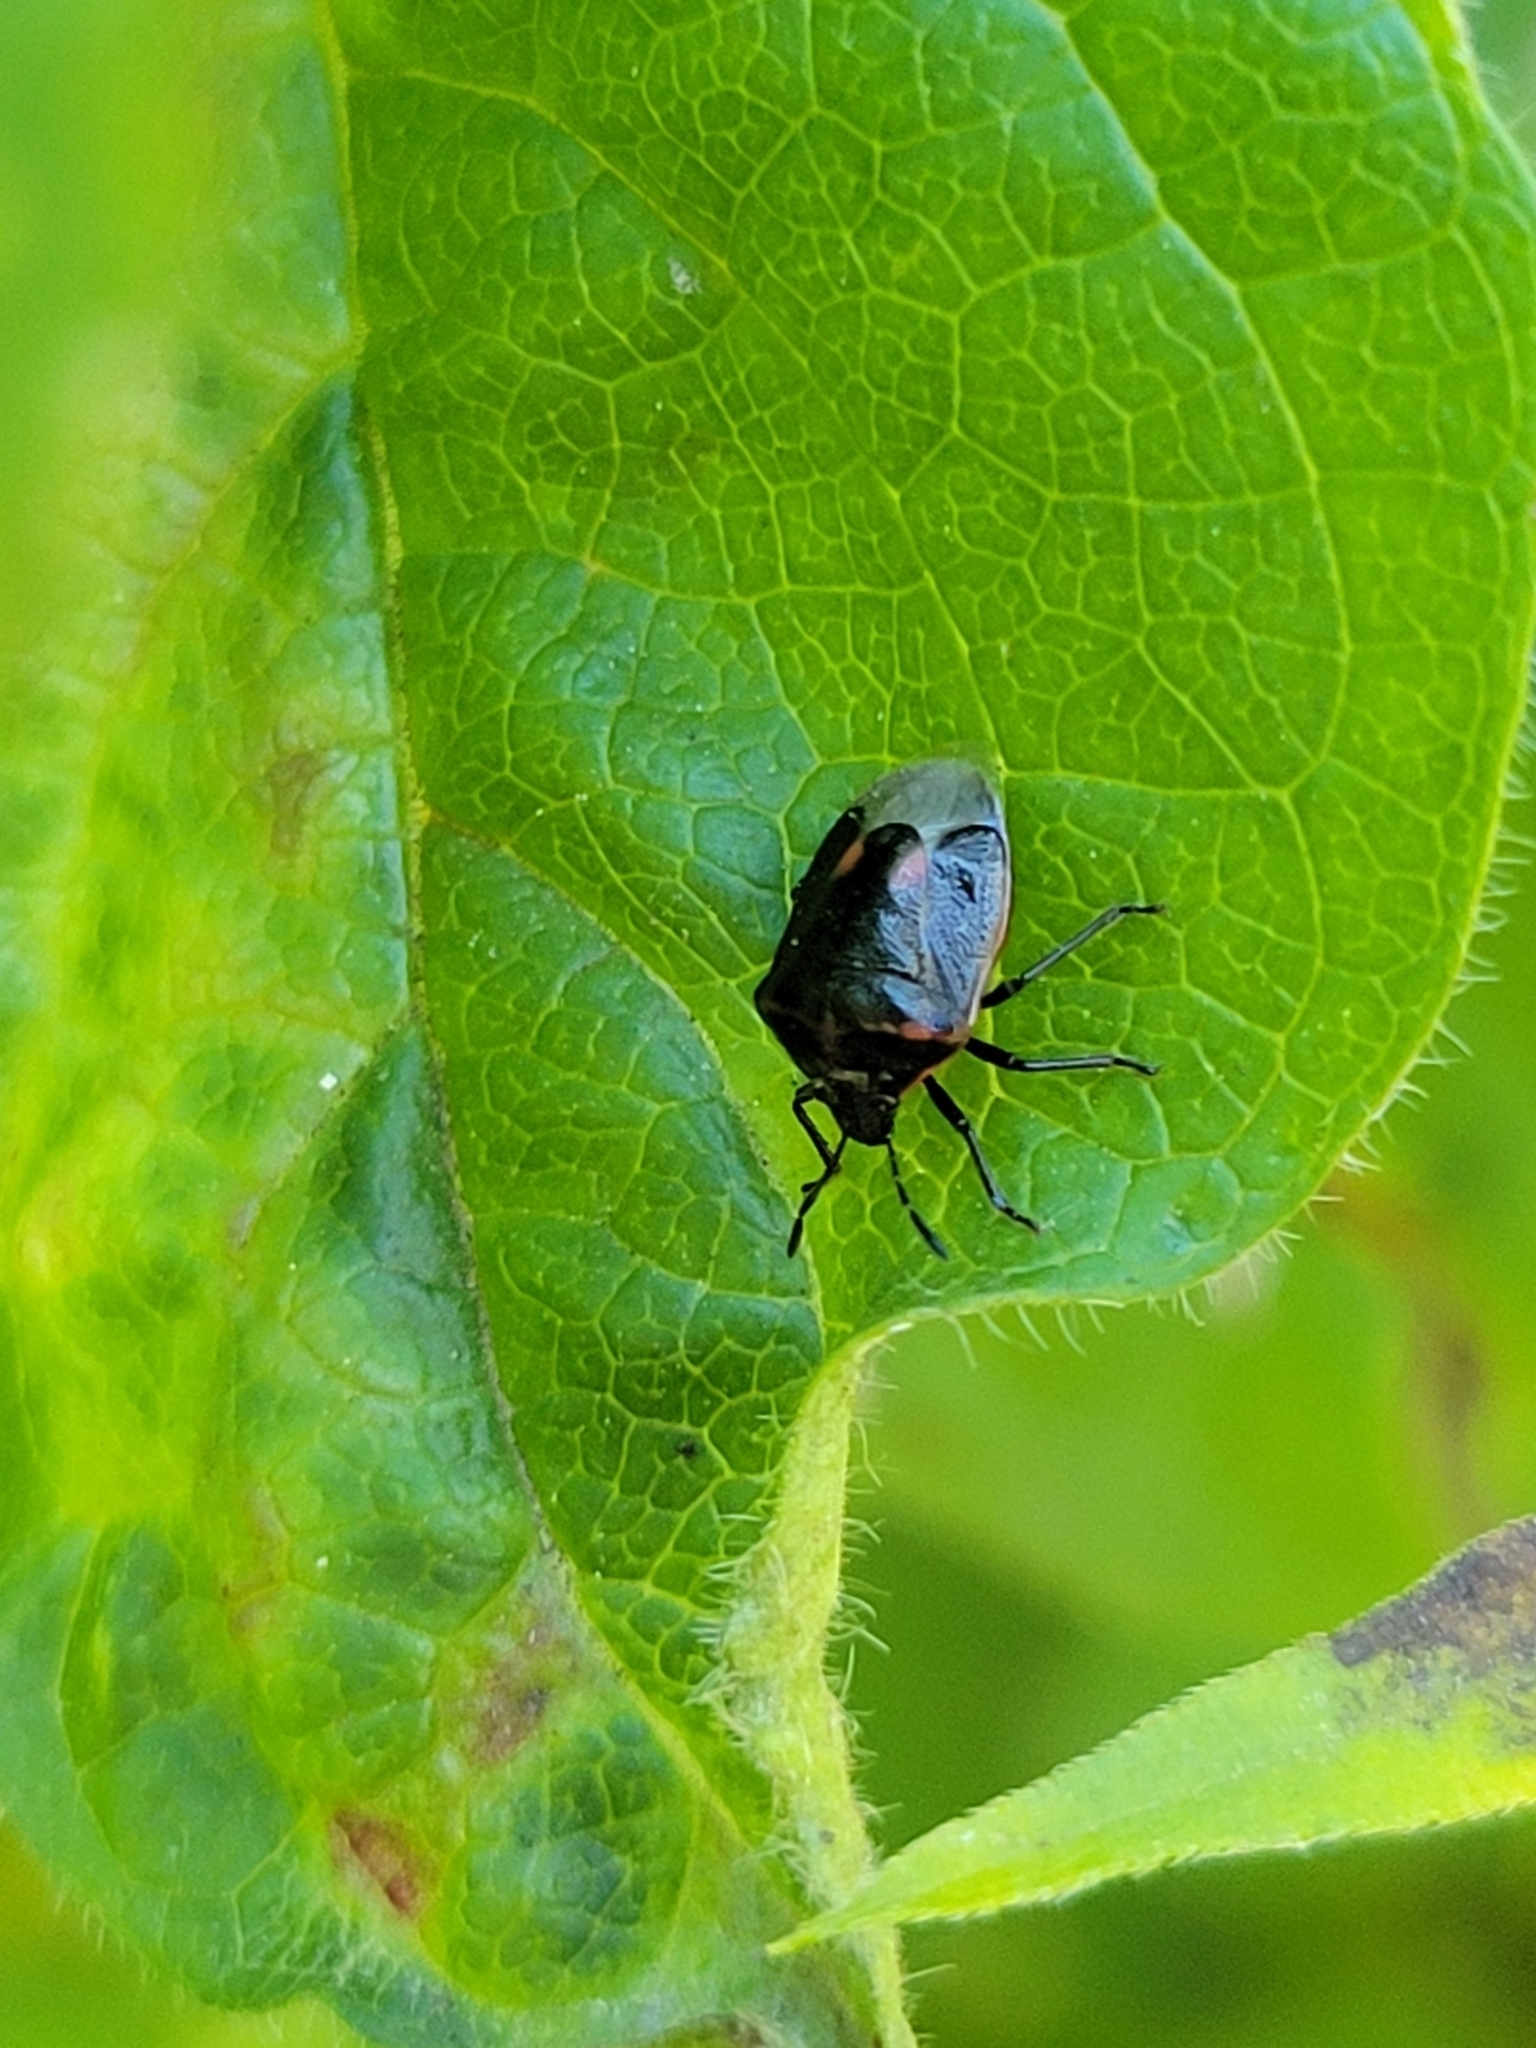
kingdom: Animalia
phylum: Arthropoda
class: Insecta
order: Hemiptera
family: Pentatomidae
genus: Cosmopepla
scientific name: Cosmopepla lintneriana
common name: Twice-stabbed stink bug
